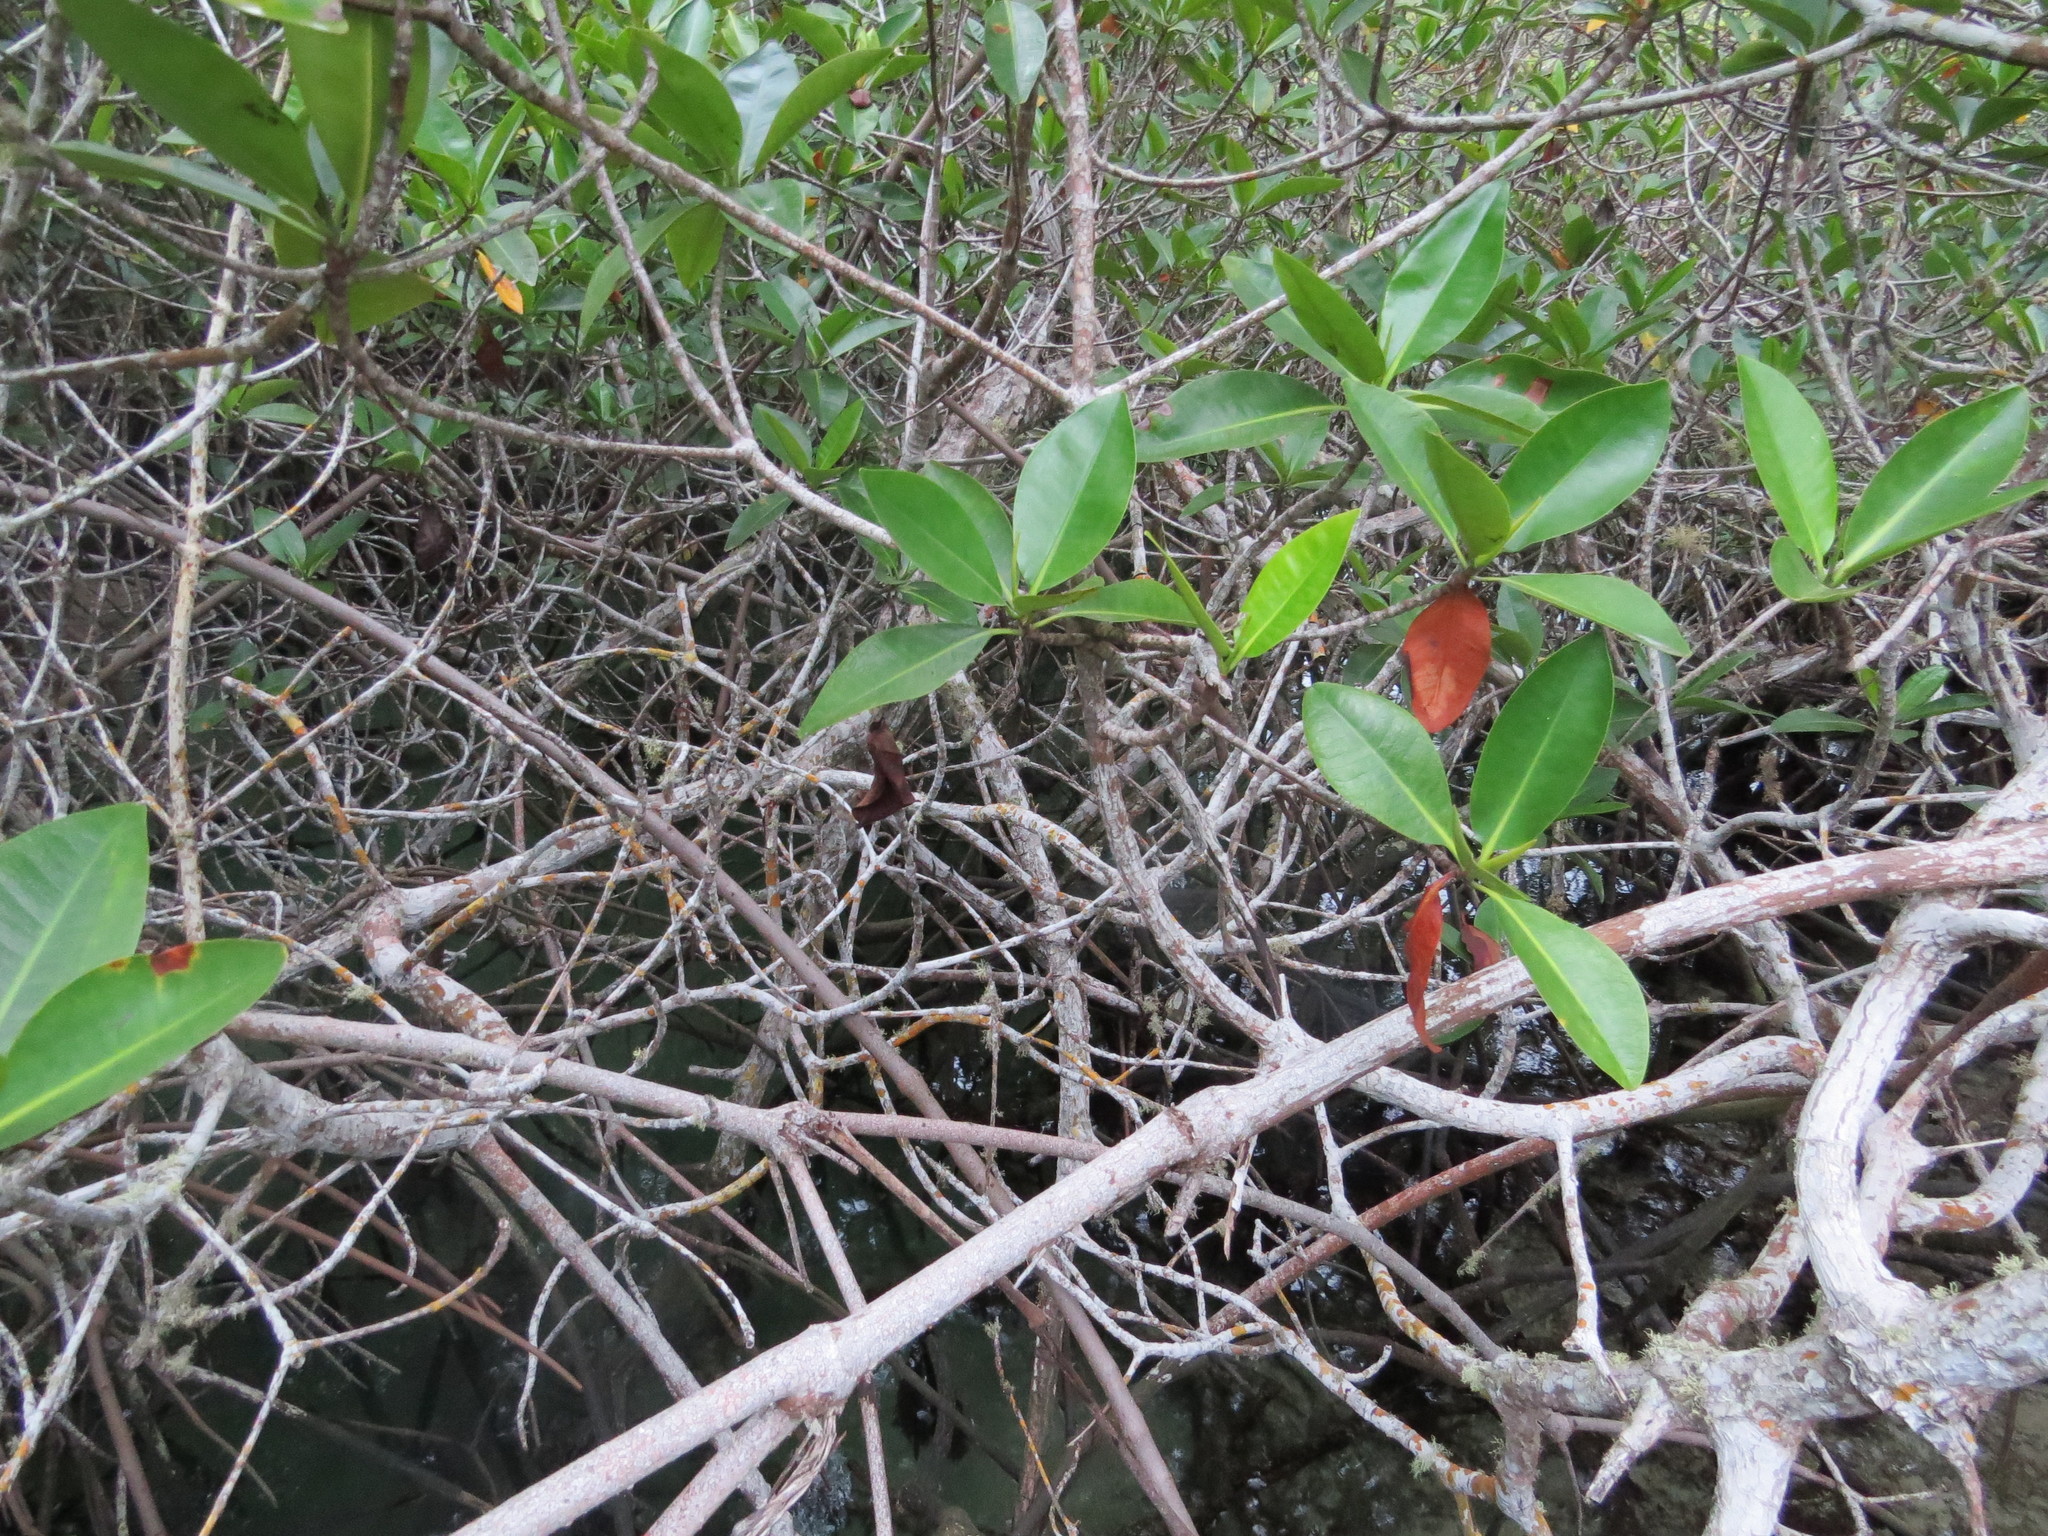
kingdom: Plantae
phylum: Tracheophyta
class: Magnoliopsida
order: Malpighiales
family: Rhizophoraceae
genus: Rhizophora
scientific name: Rhizophora mangle
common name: Red mangrove
